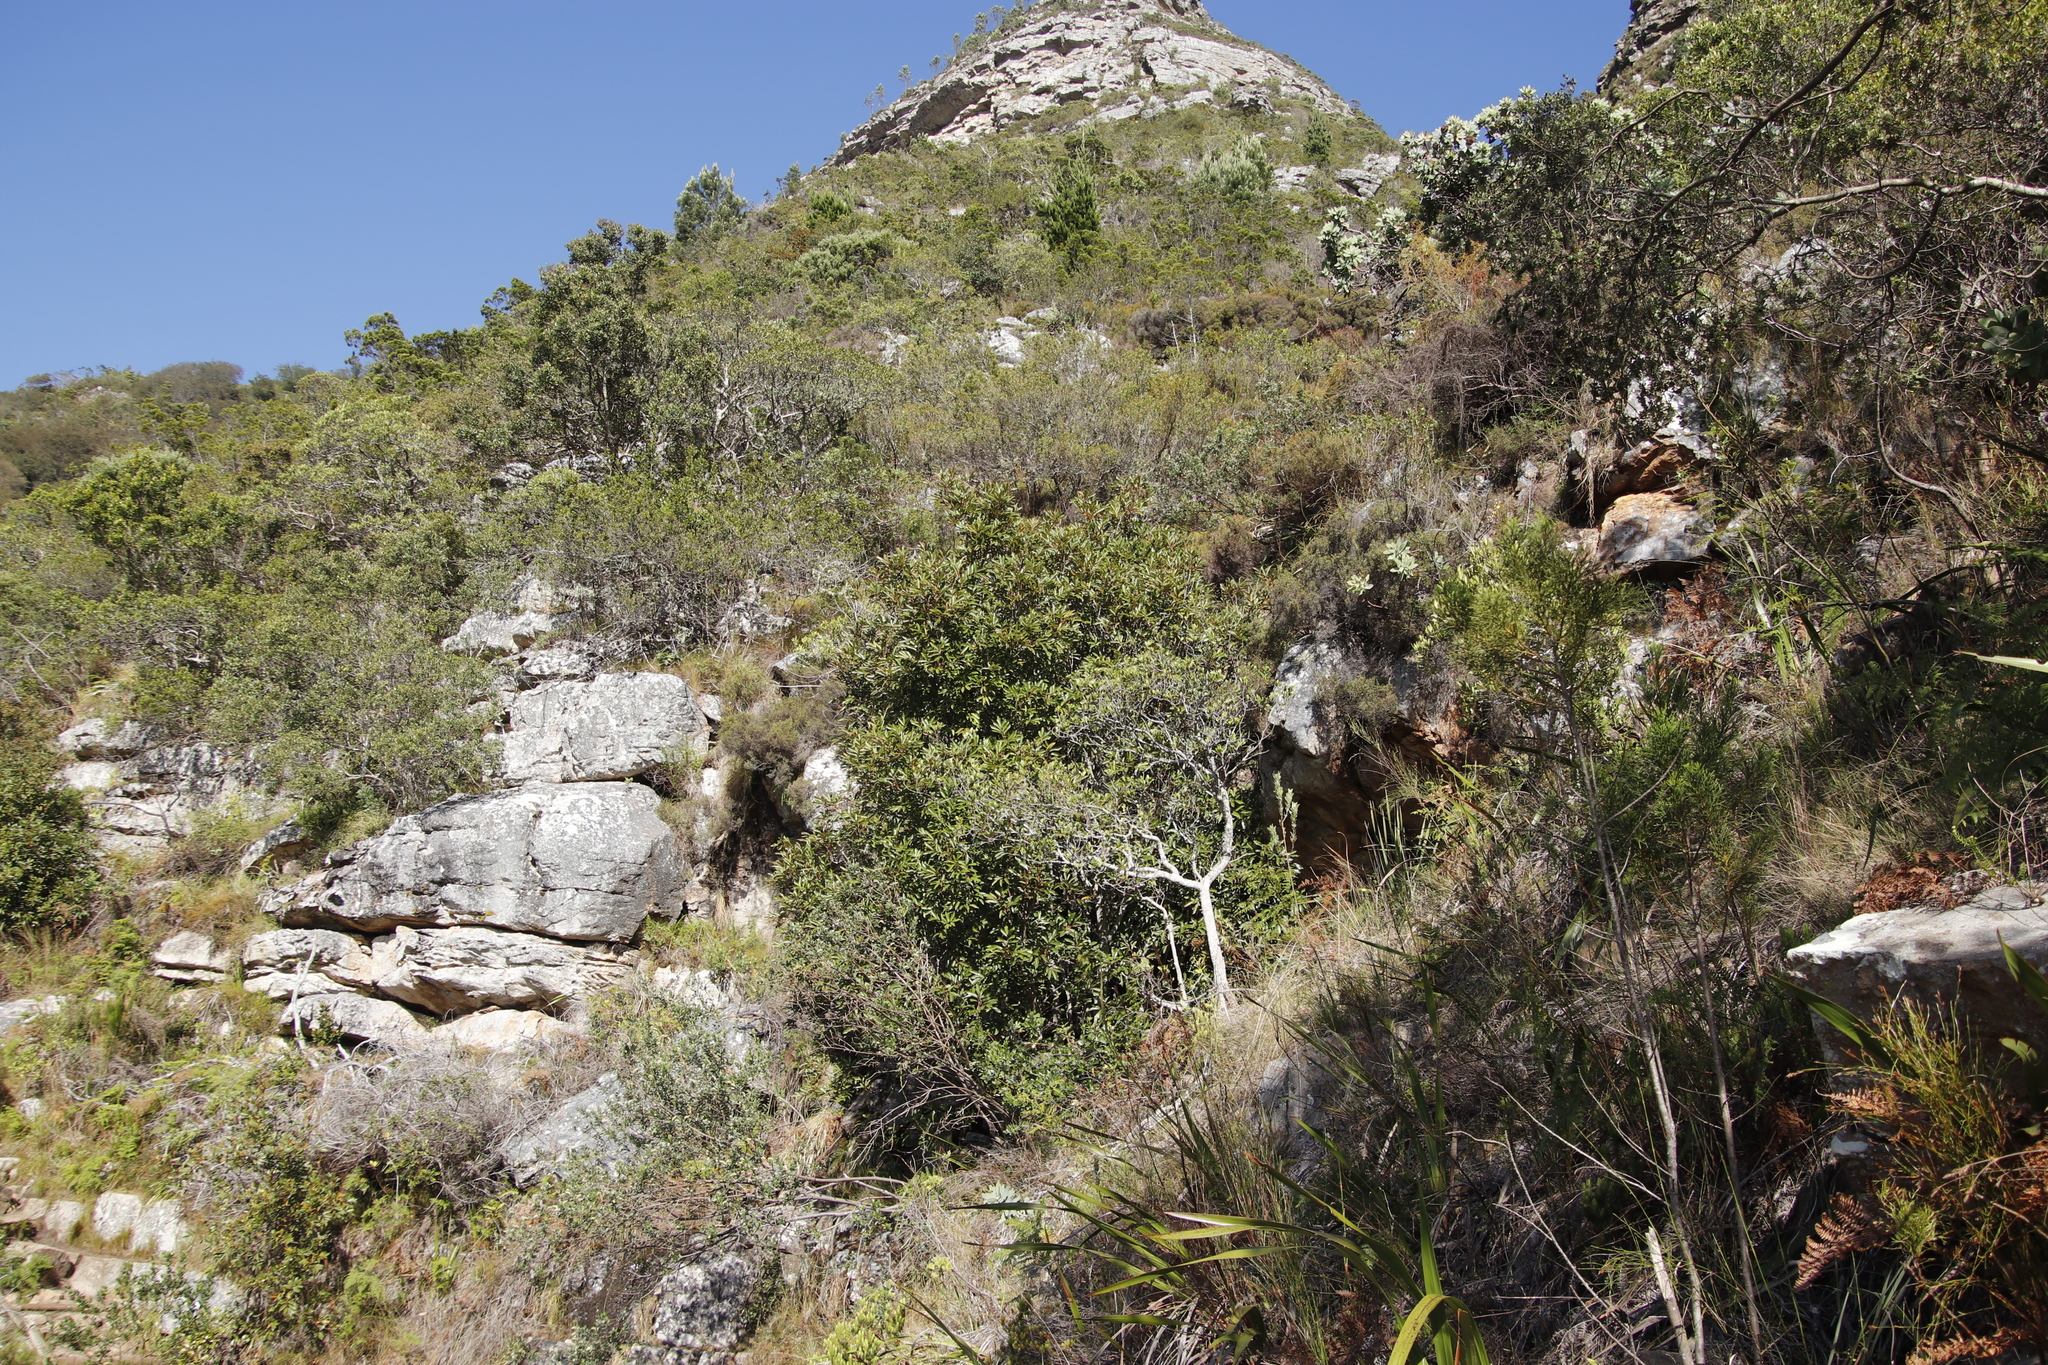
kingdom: Plantae
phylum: Tracheophyta
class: Magnoliopsida
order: Oxalidales
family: Cunoniaceae
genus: Cunonia
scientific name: Cunonia capensis
